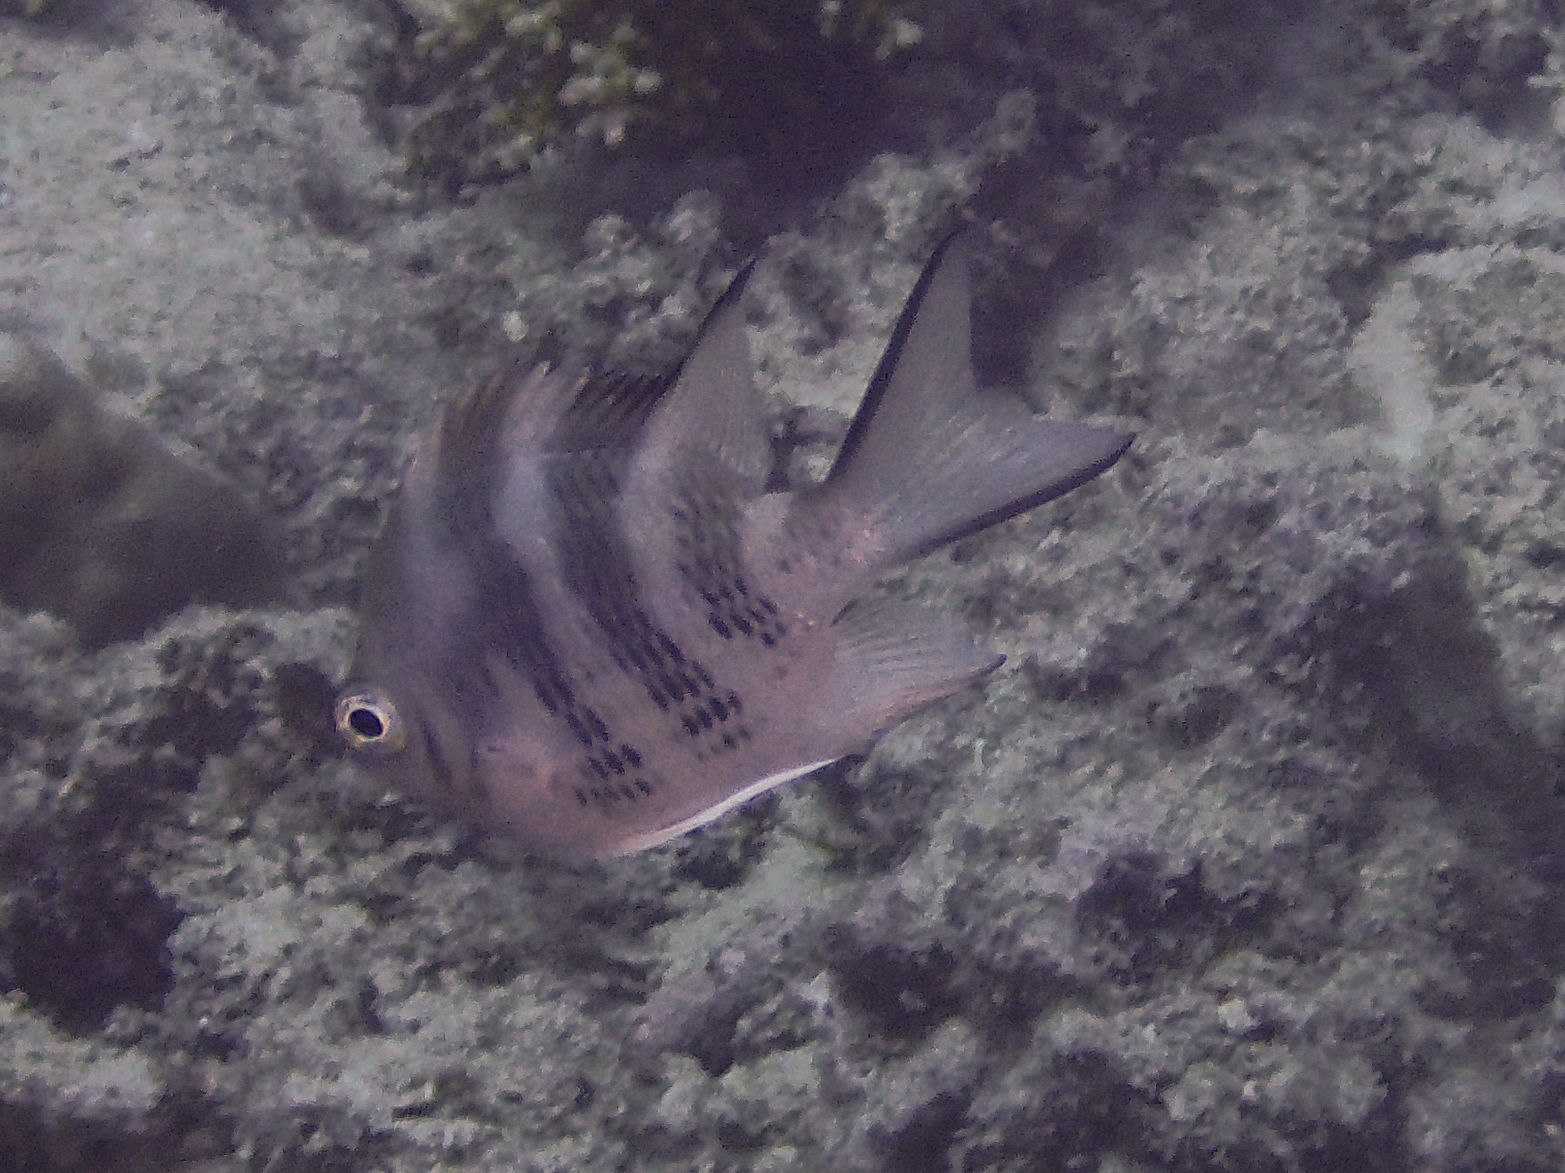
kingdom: Animalia
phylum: Chordata
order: Perciformes
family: Pomacentridae
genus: Amblyglyphidodon
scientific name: Amblyglyphidodon curacao
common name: Staghorn damsel
